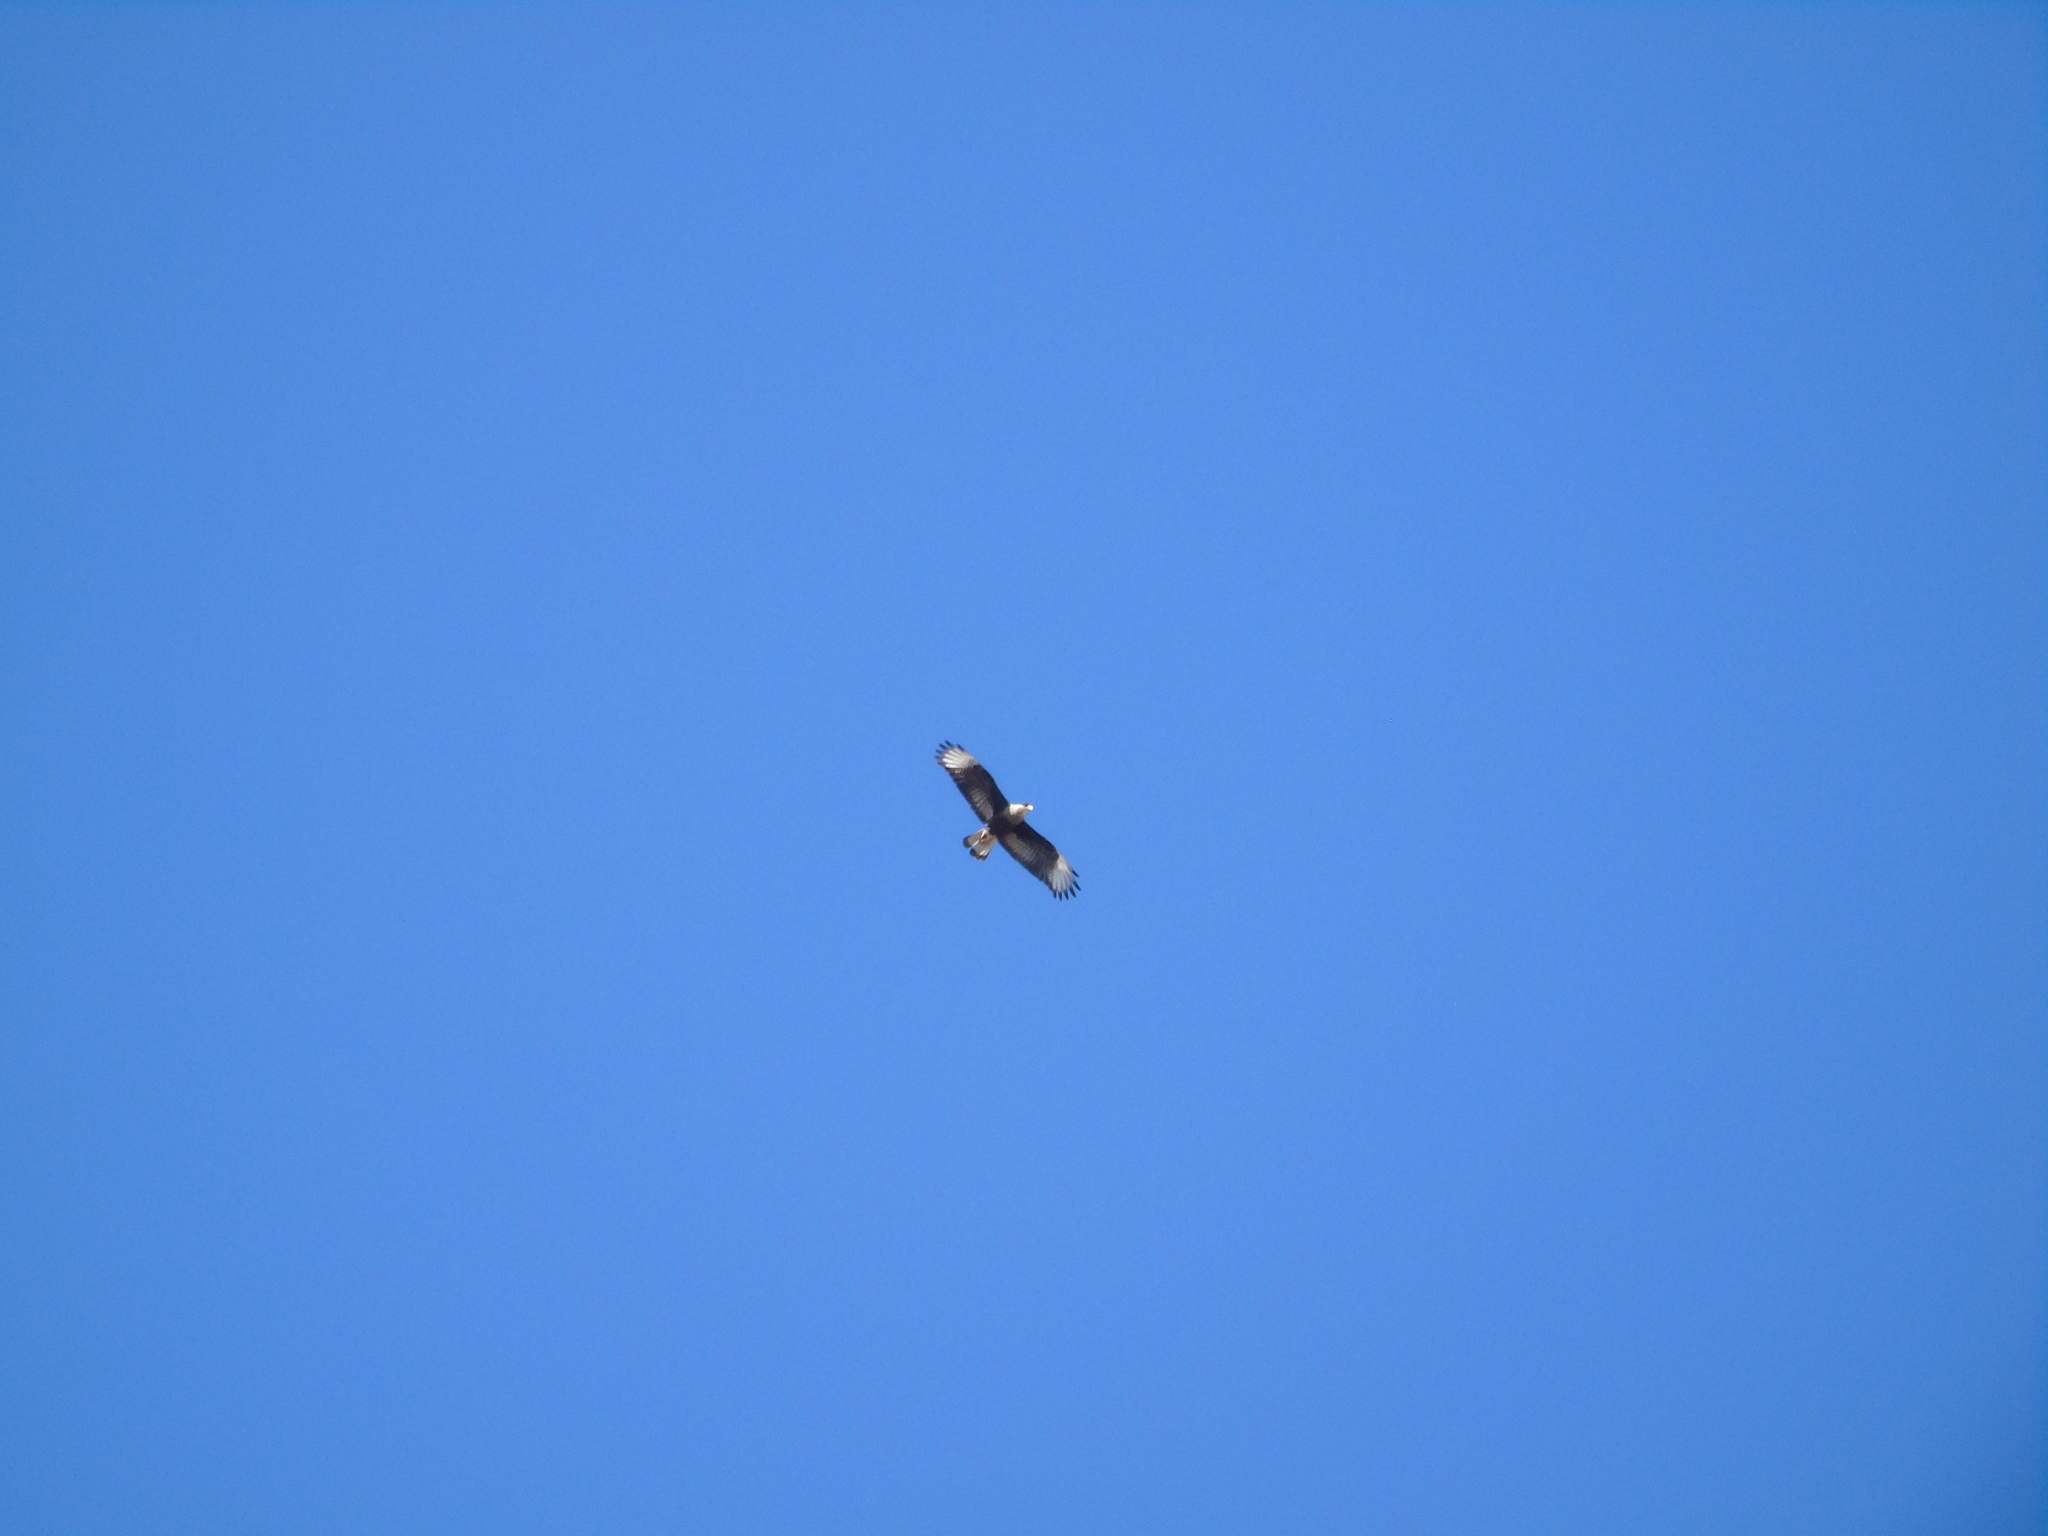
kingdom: Animalia
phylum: Chordata
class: Aves
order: Falconiformes
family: Falconidae
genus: Caracara
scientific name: Caracara plancus
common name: Southern caracara
